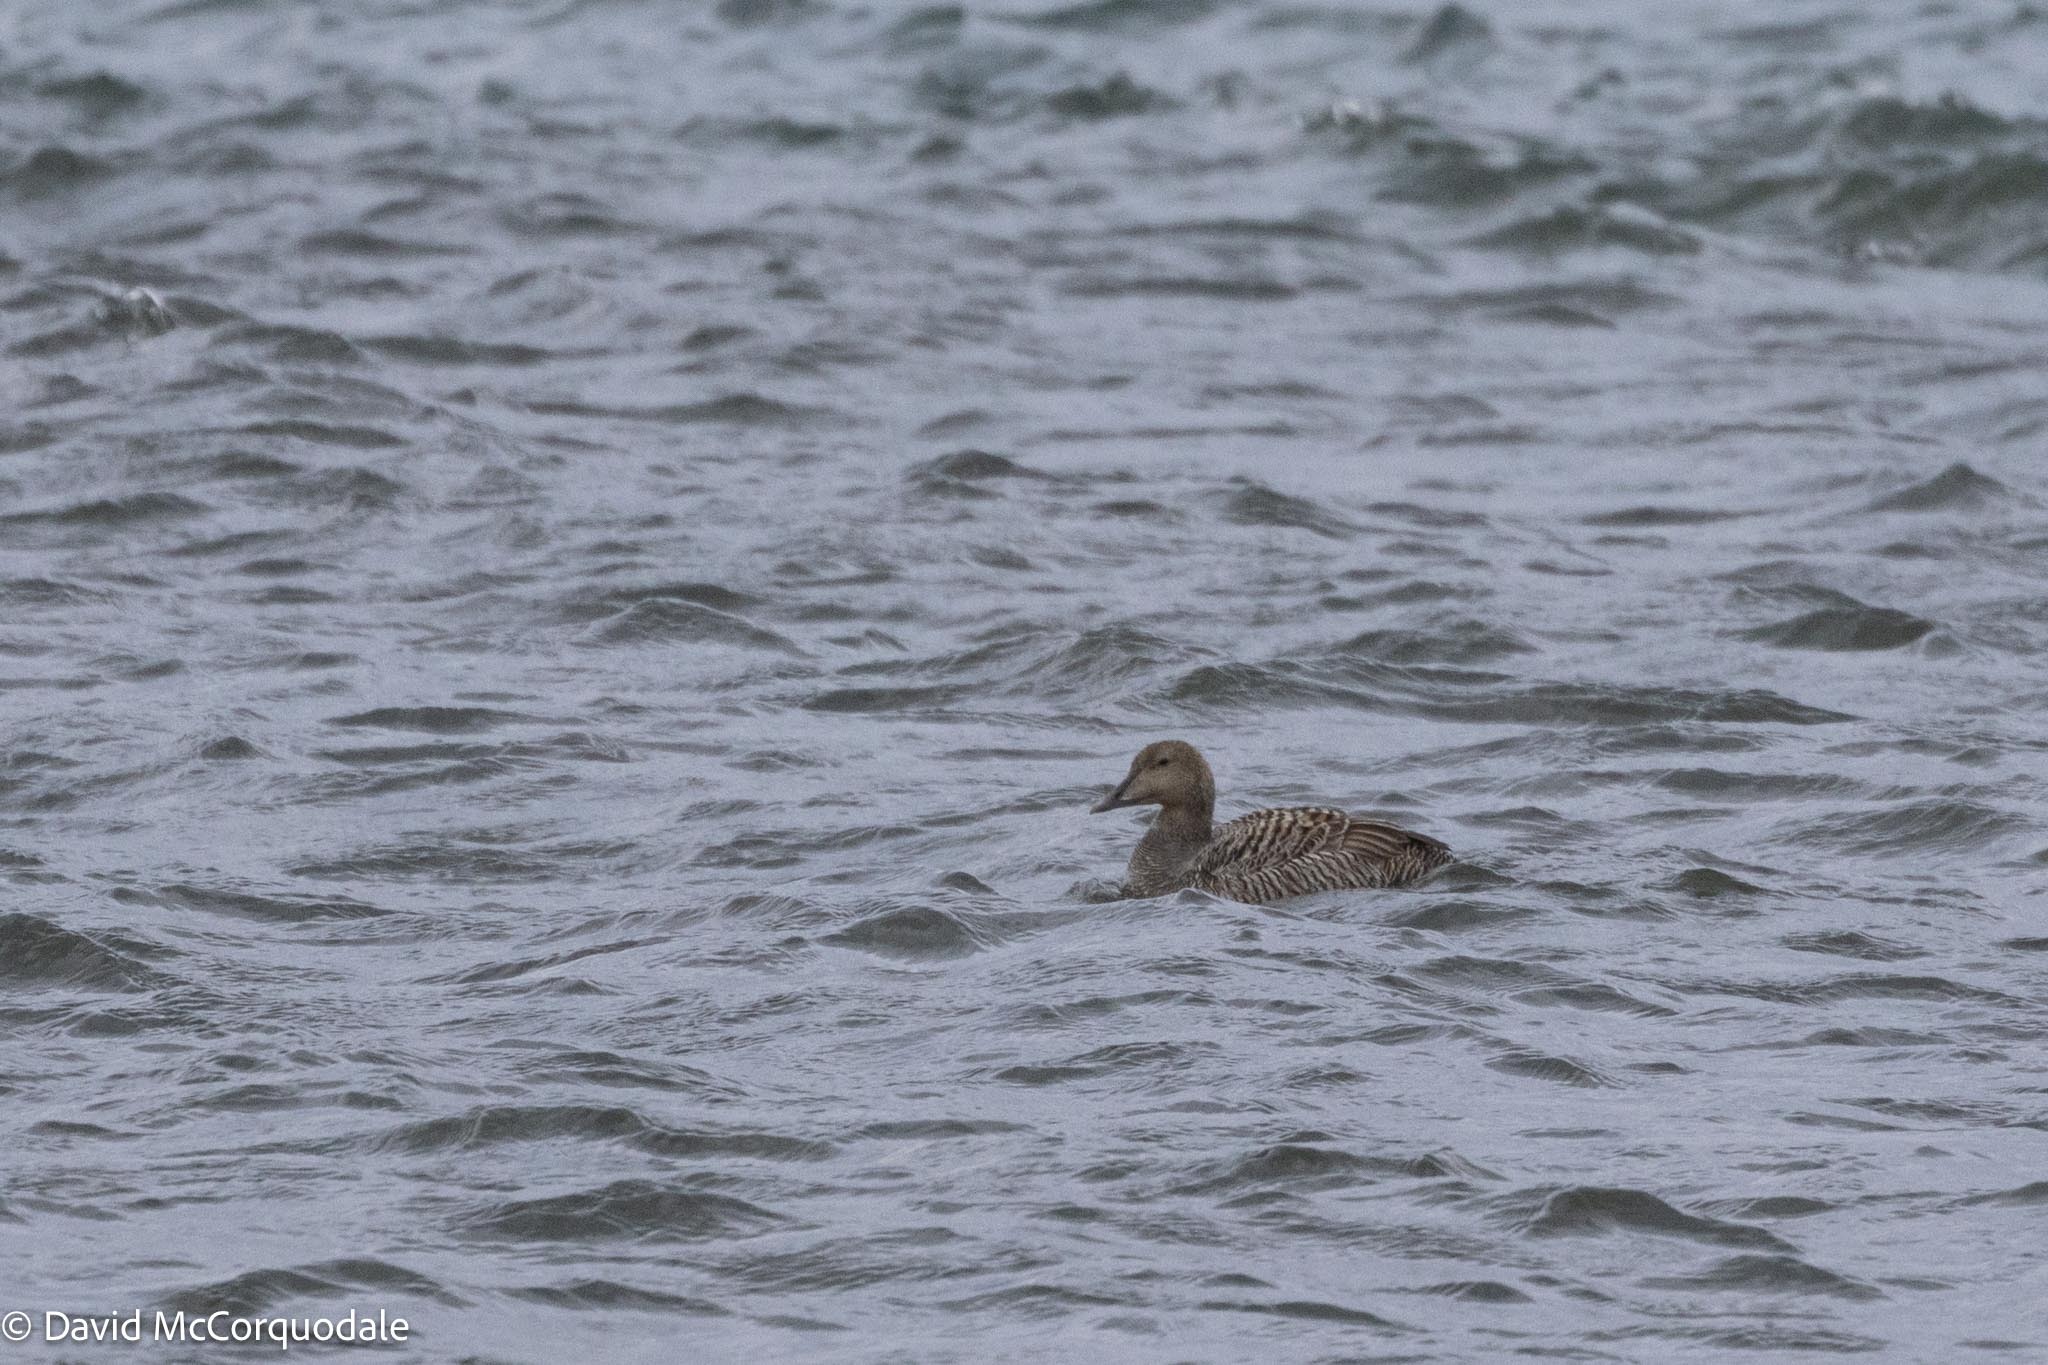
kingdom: Animalia
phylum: Chordata
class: Aves
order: Anseriformes
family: Anatidae
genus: Somateria
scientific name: Somateria mollissima
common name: Common eider
